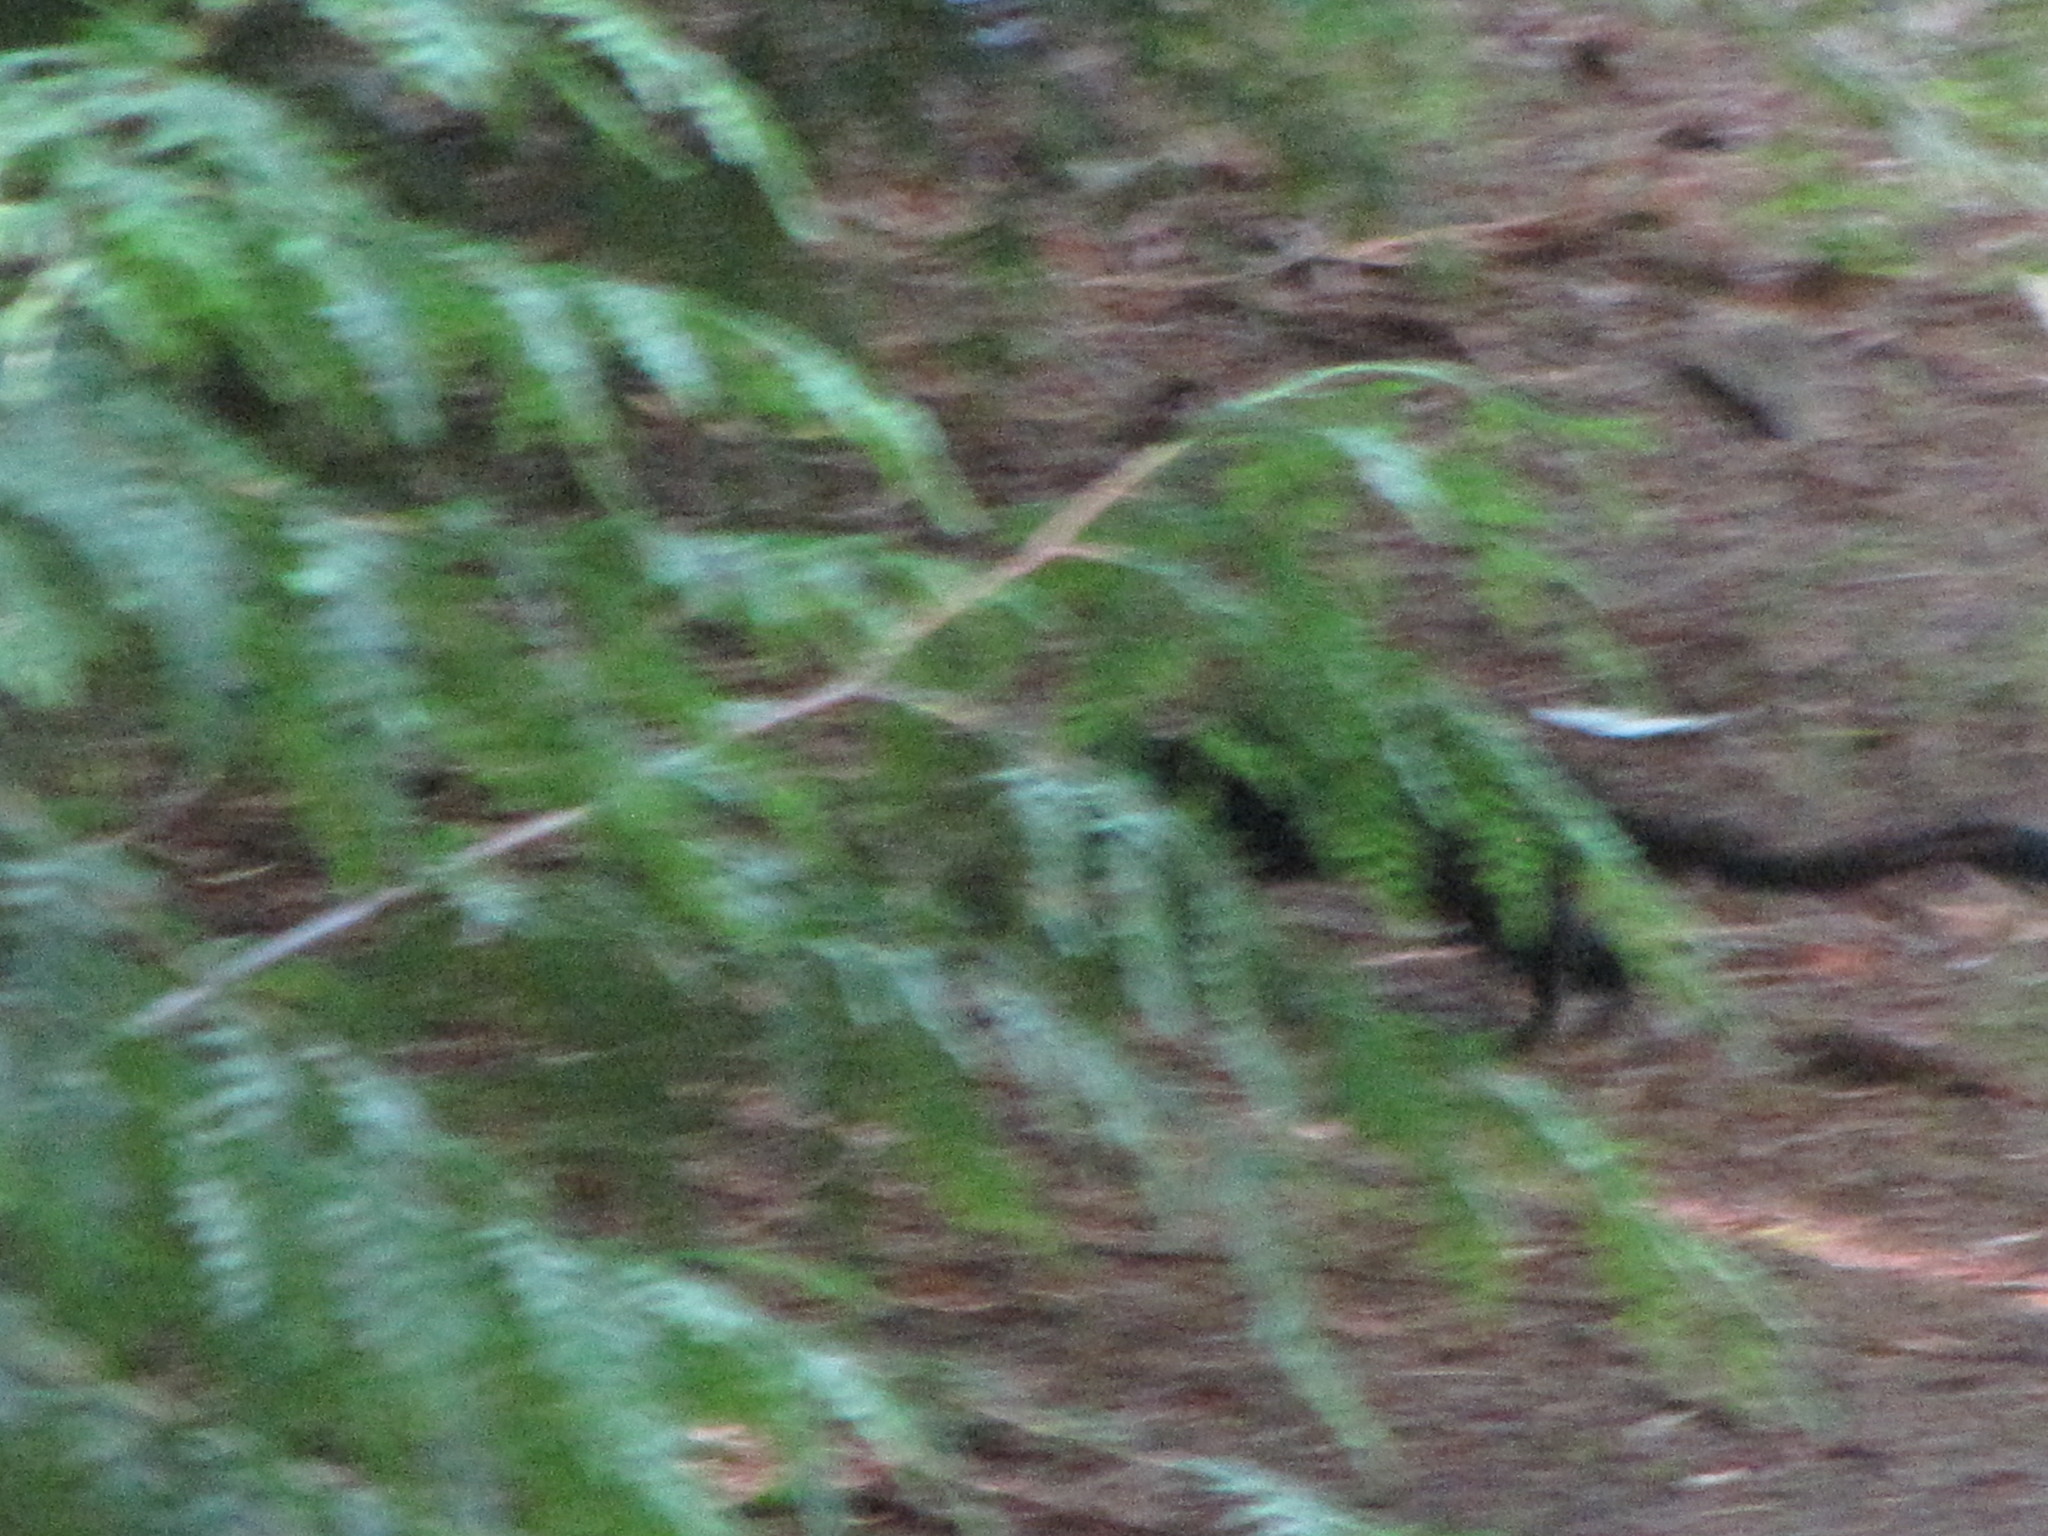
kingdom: Animalia
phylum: Chordata
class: Mammalia
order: Rodentia
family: Sciuridae
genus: Sciurus
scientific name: Sciurus carolinensis
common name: Eastern gray squirrel
